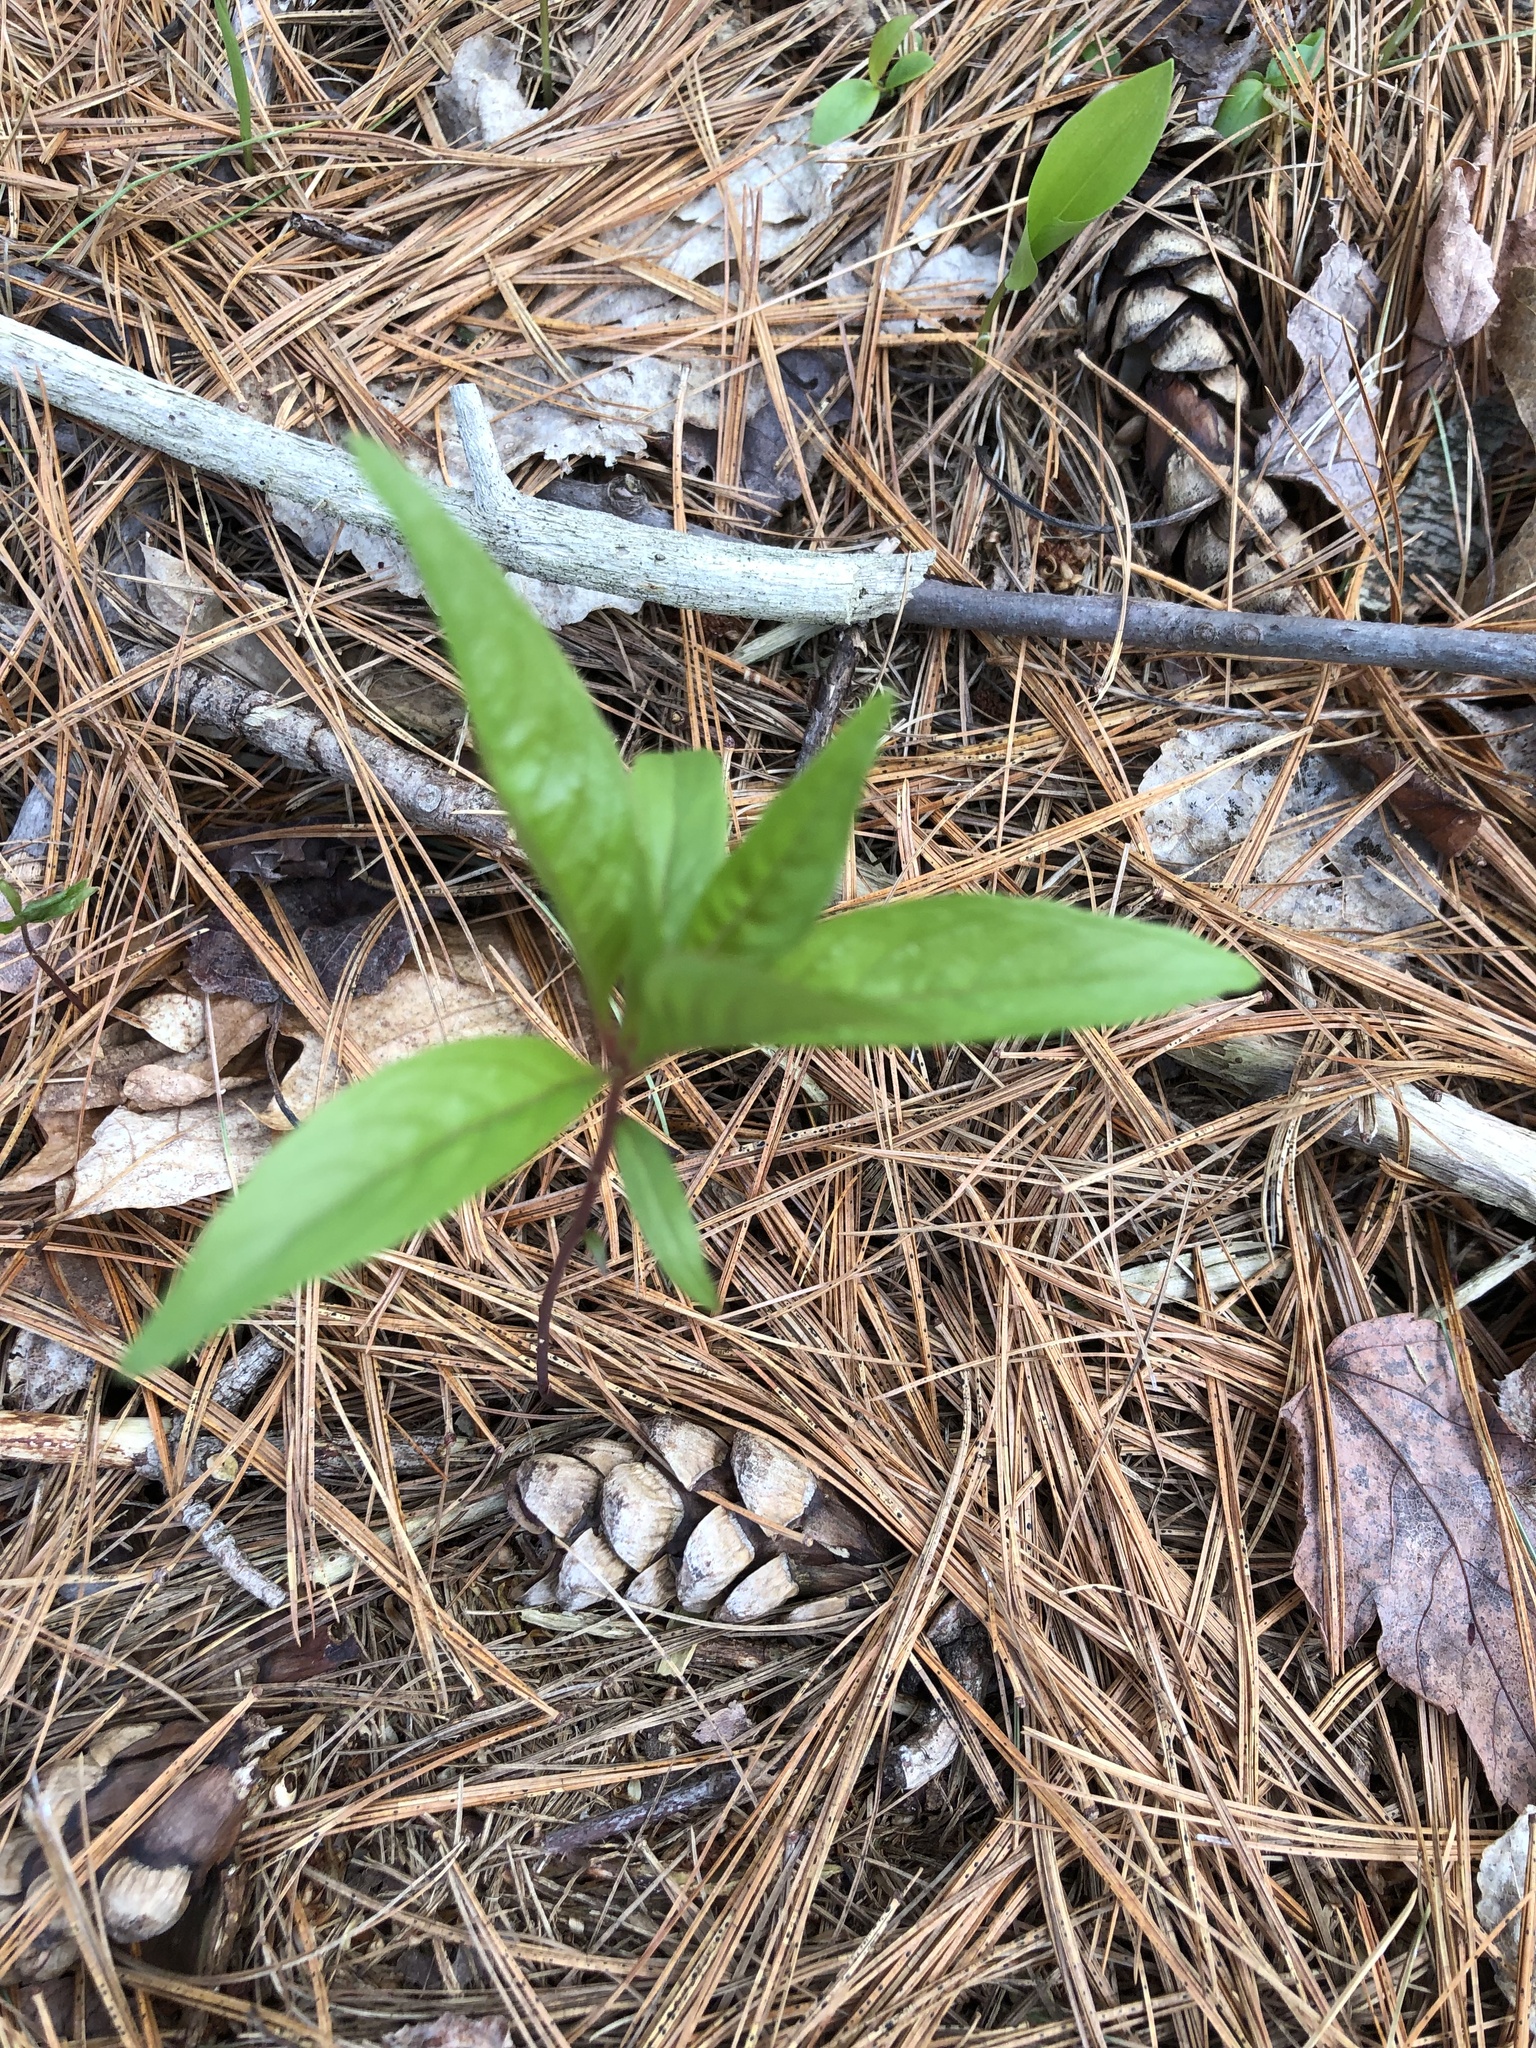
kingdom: Plantae
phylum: Tracheophyta
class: Magnoliopsida
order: Ericales
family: Primulaceae
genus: Lysimachia
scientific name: Lysimachia borealis
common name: American starflower
